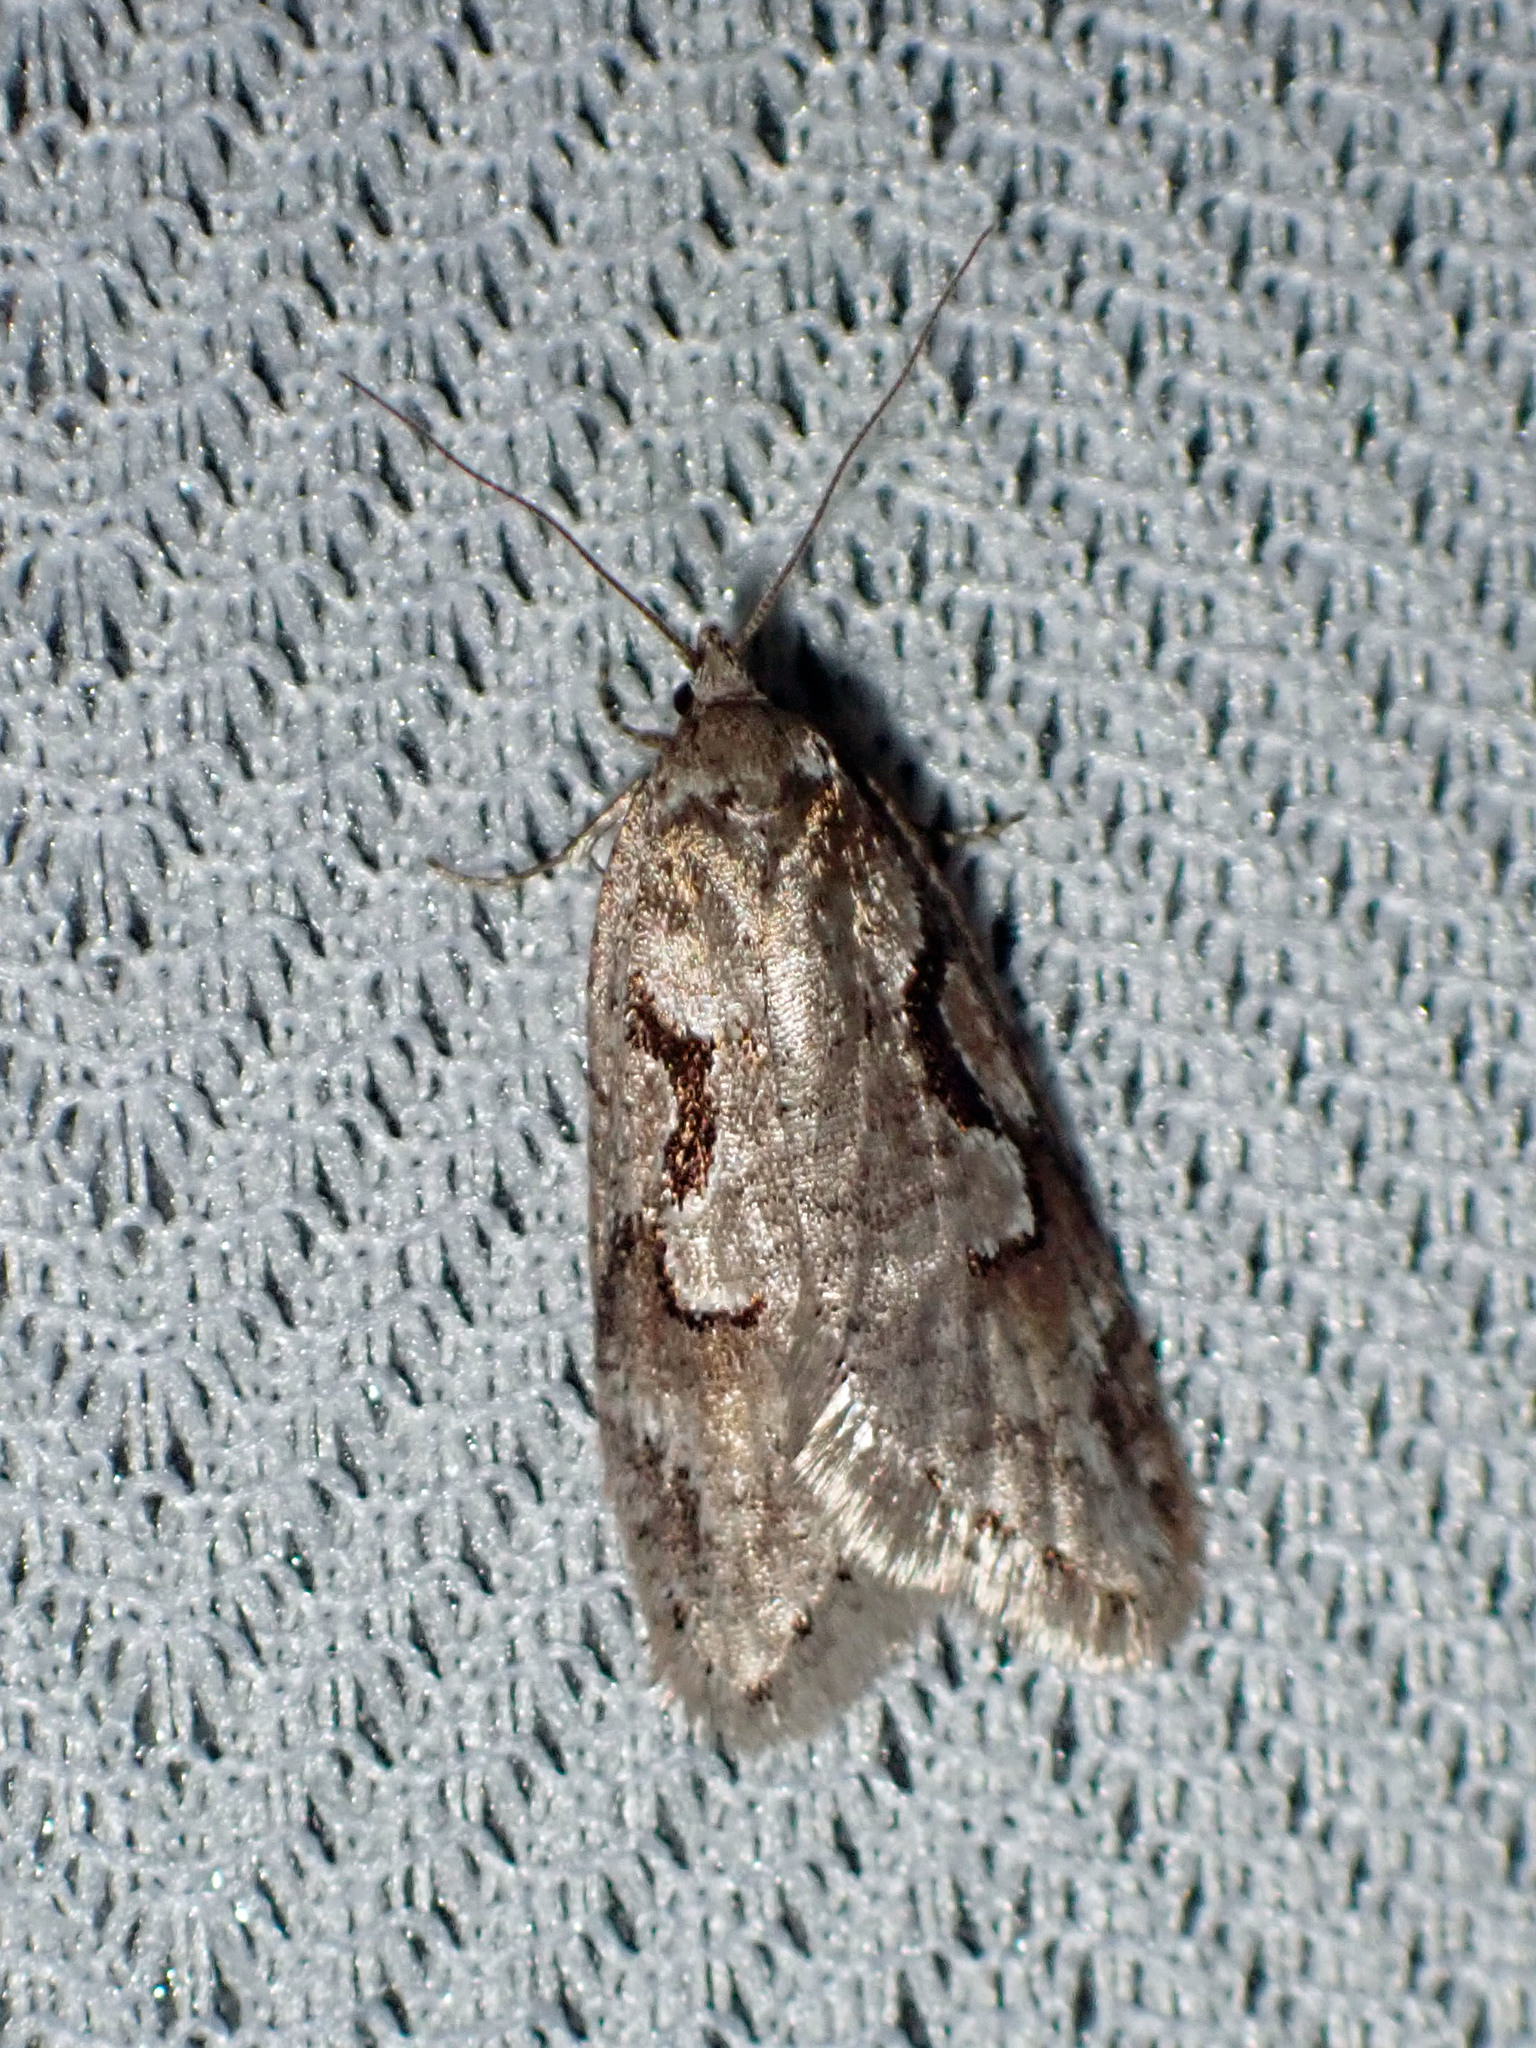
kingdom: Animalia
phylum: Arthropoda
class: Insecta
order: Lepidoptera
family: Depressariidae
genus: Semioscopis
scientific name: Semioscopis merriccella
